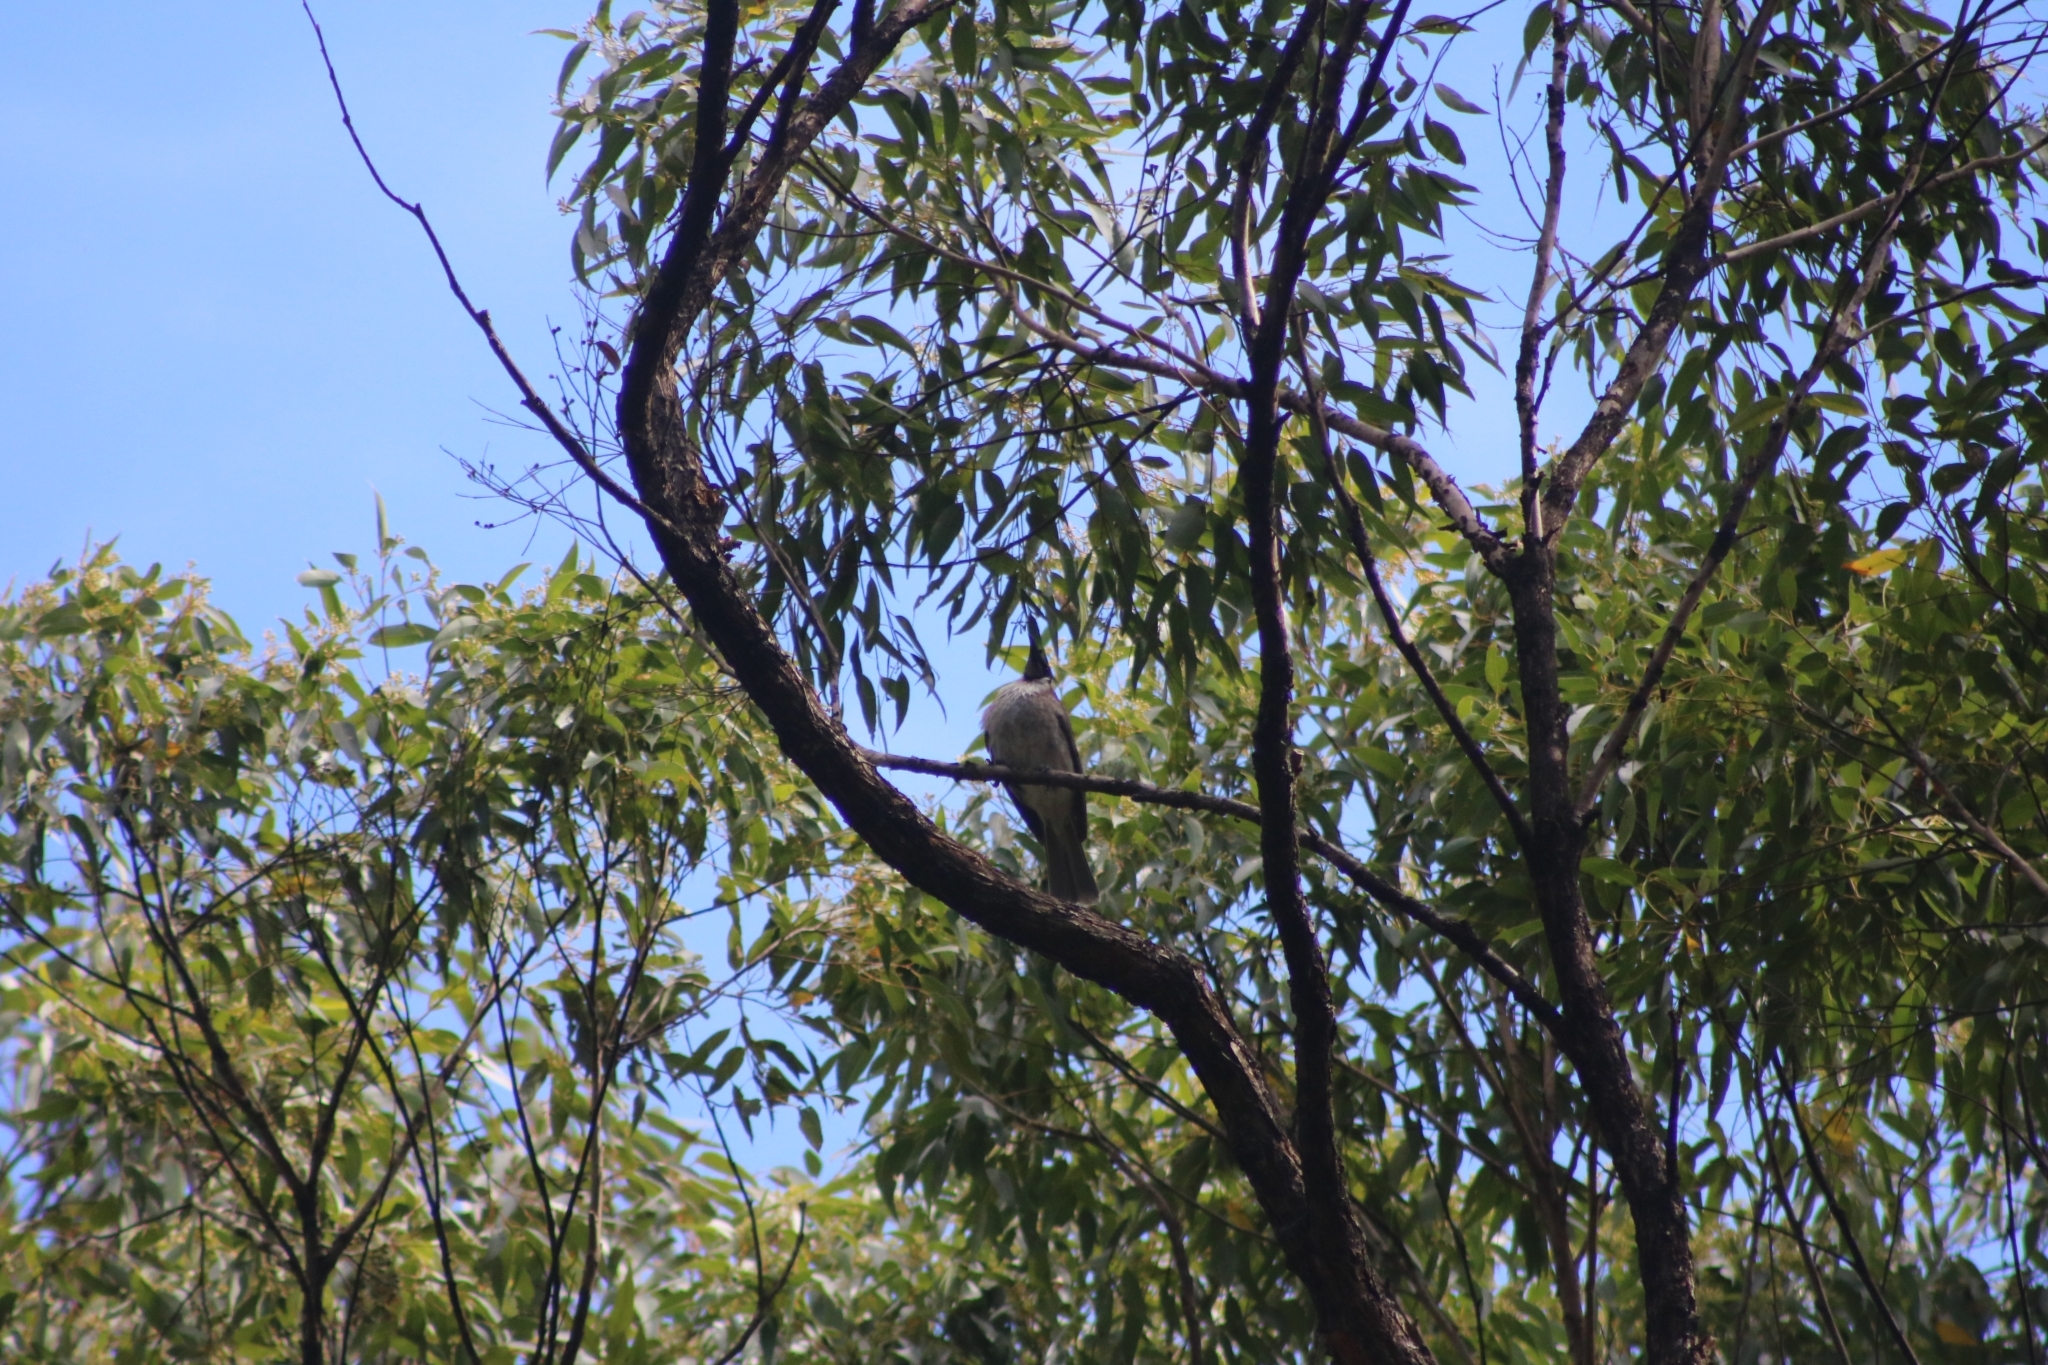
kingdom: Animalia
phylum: Chordata
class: Aves
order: Passeriformes
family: Meliphagidae
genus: Philemon
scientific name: Philemon corniculatus
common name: Noisy friarbird
